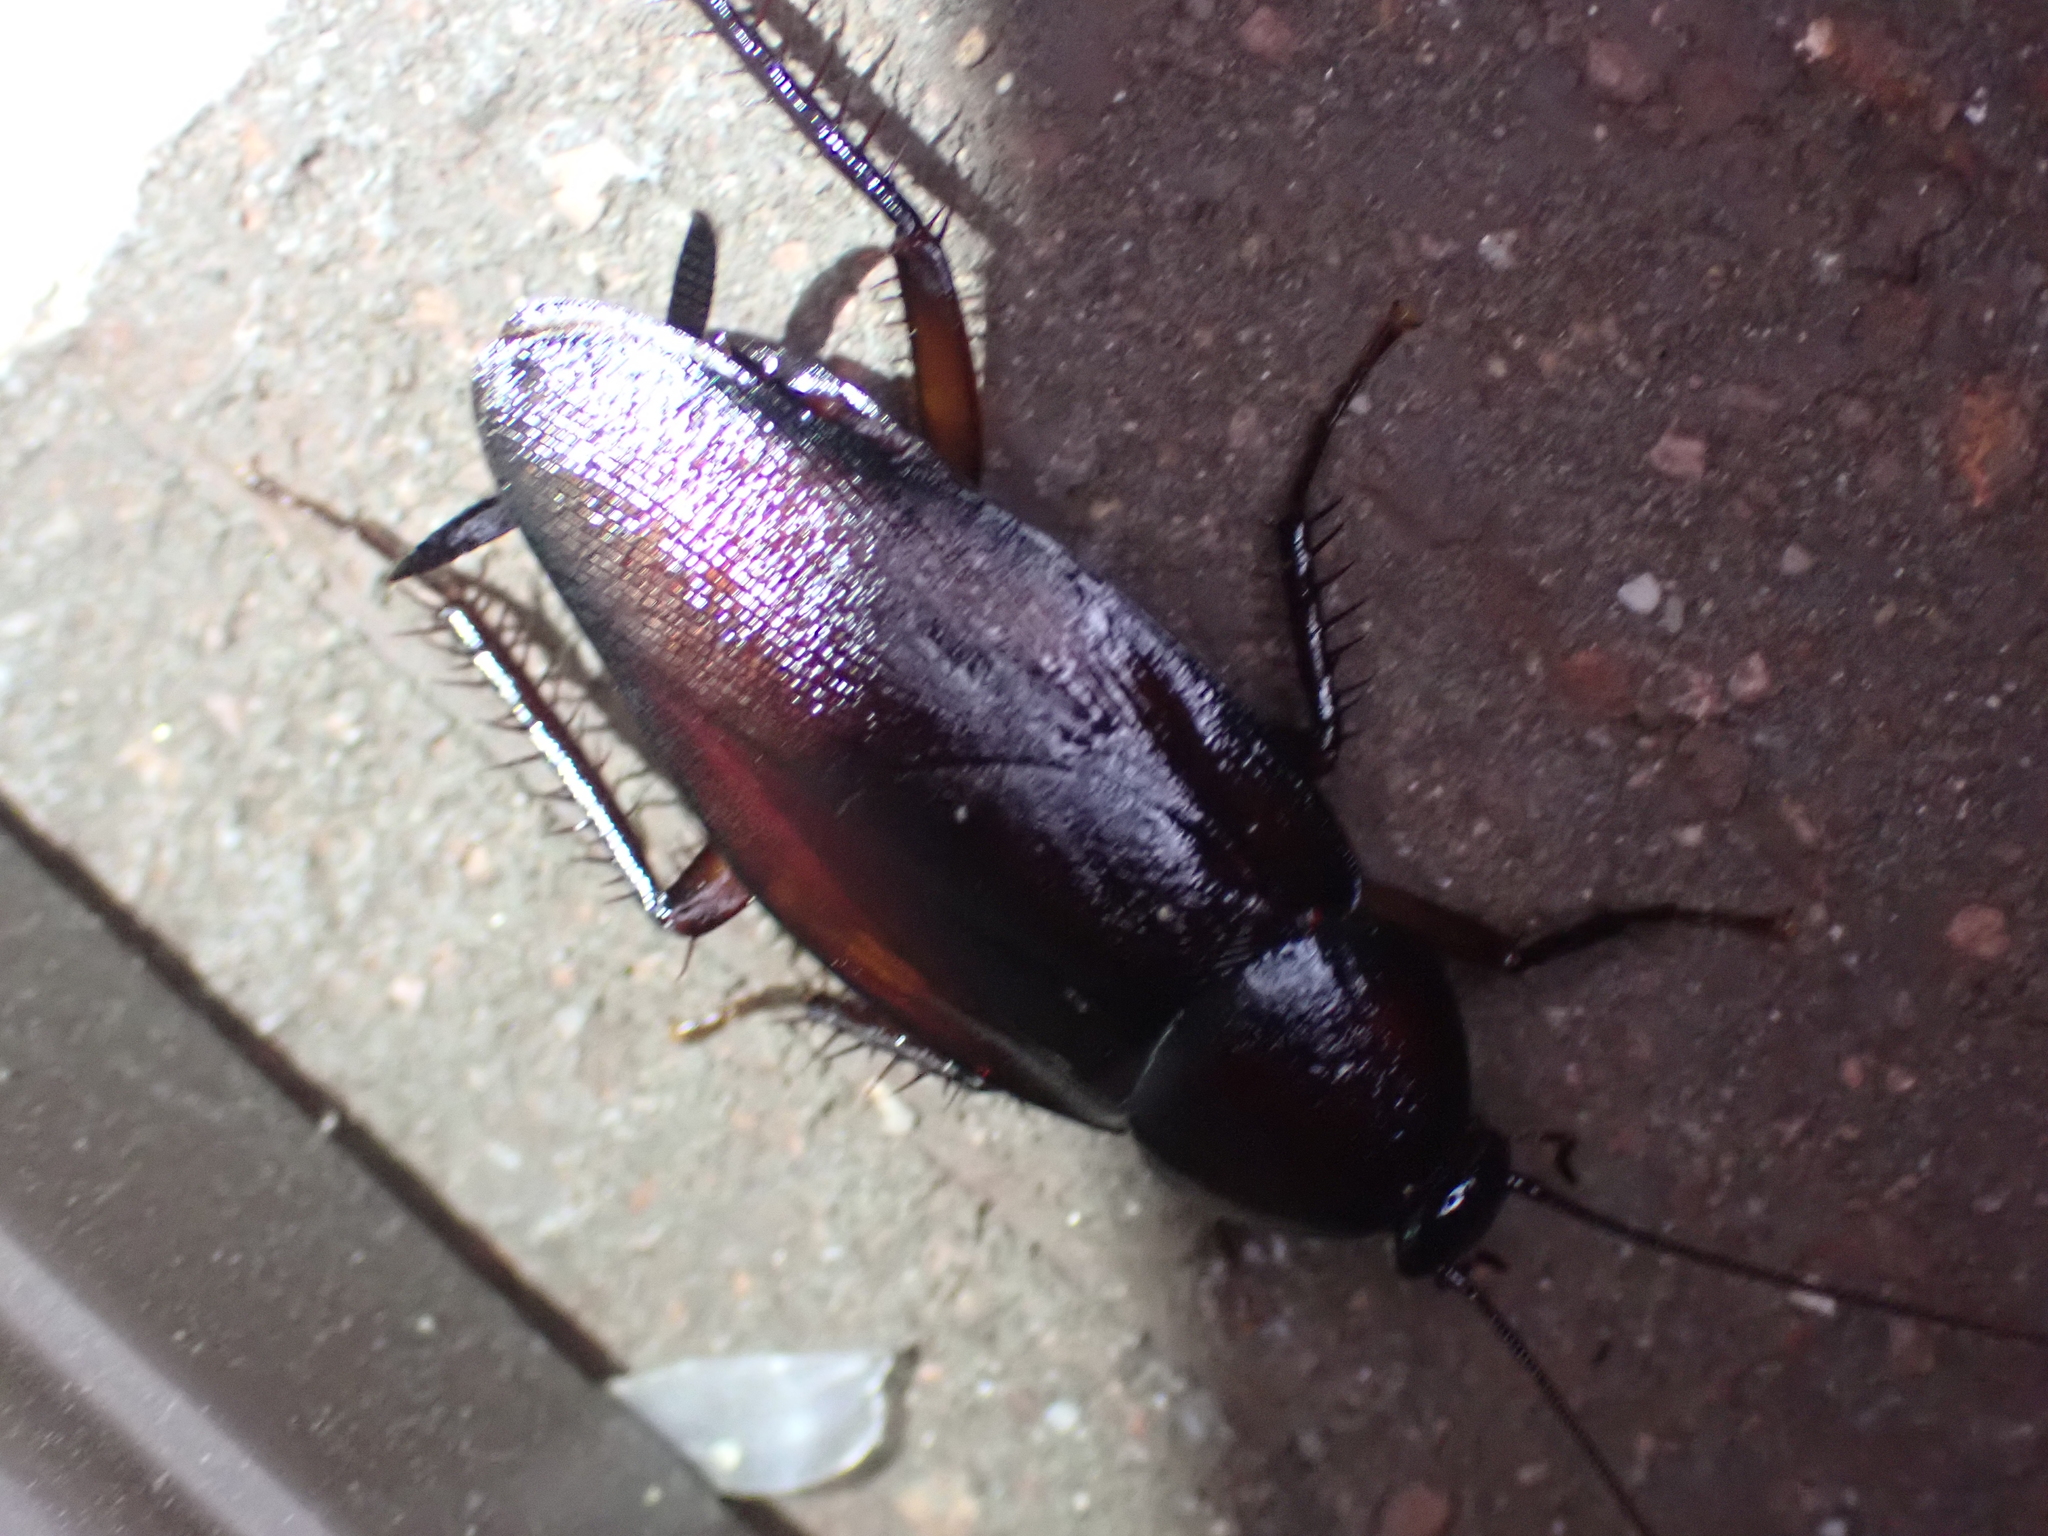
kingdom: Animalia
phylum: Arthropoda
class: Insecta
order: Blattodea
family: Blattidae
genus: Periplaneta
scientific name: Periplaneta fuliginosa
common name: Smokeybrown cockroad
